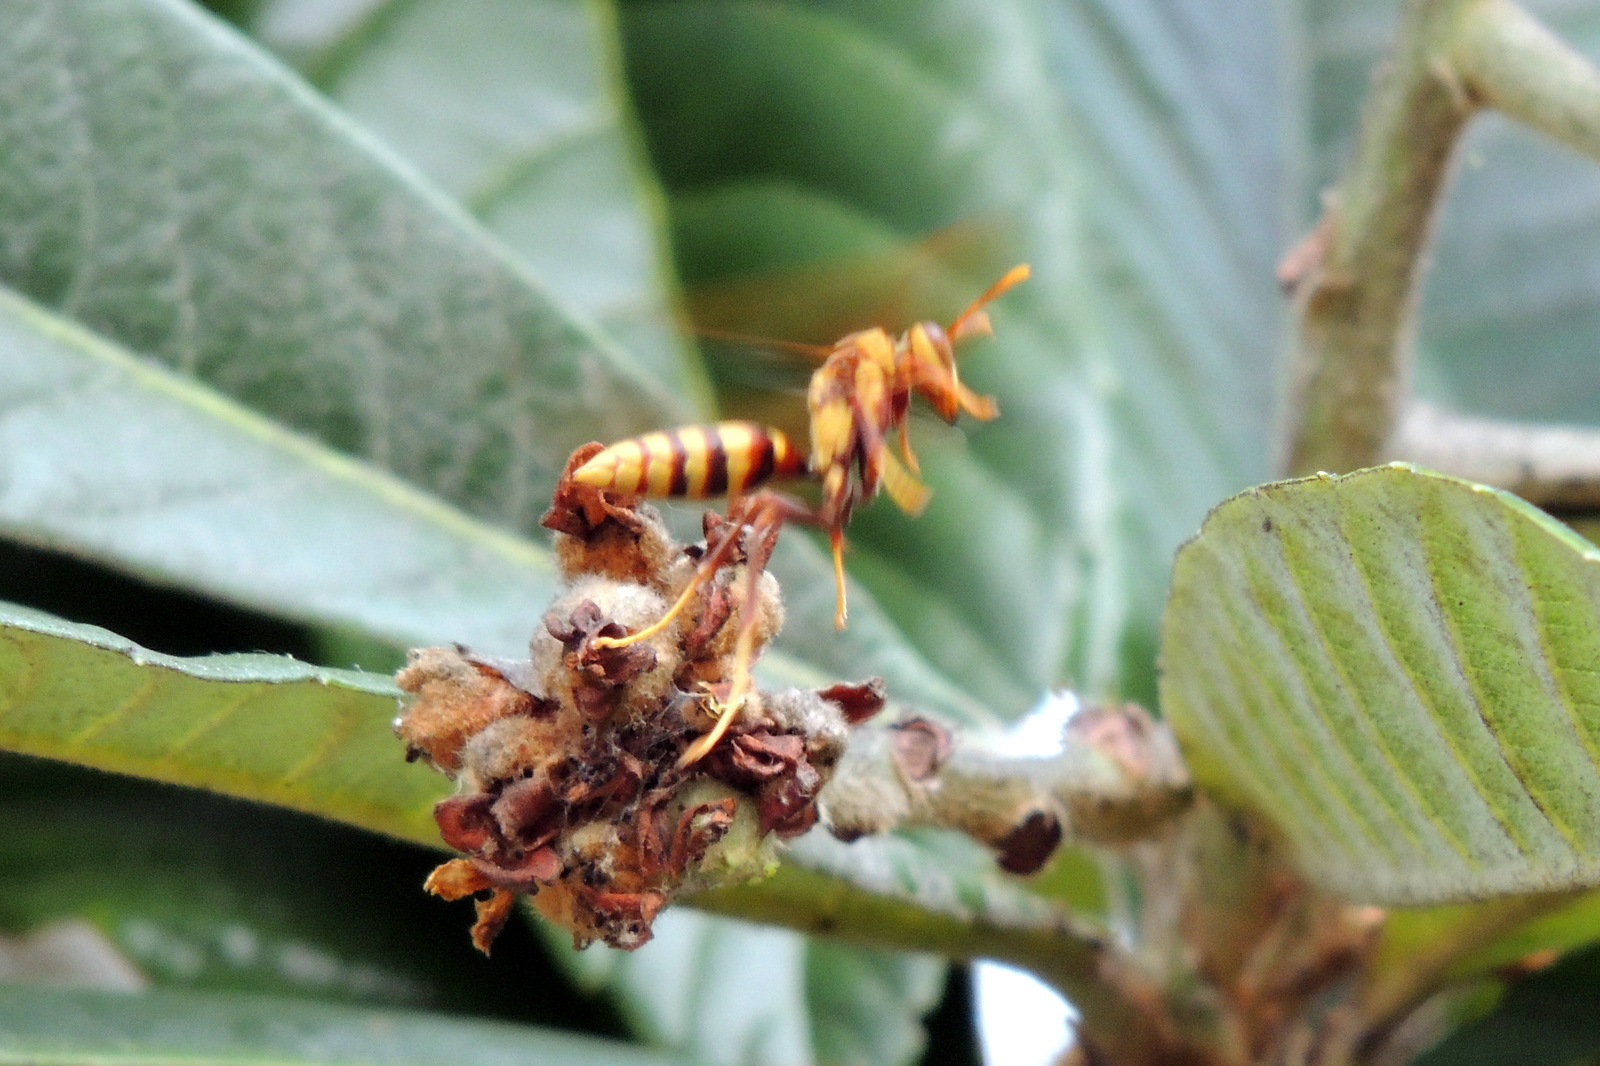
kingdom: Animalia
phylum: Arthropoda
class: Insecta
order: Hymenoptera
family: Eumenidae
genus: Polistes
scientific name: Polistes major
